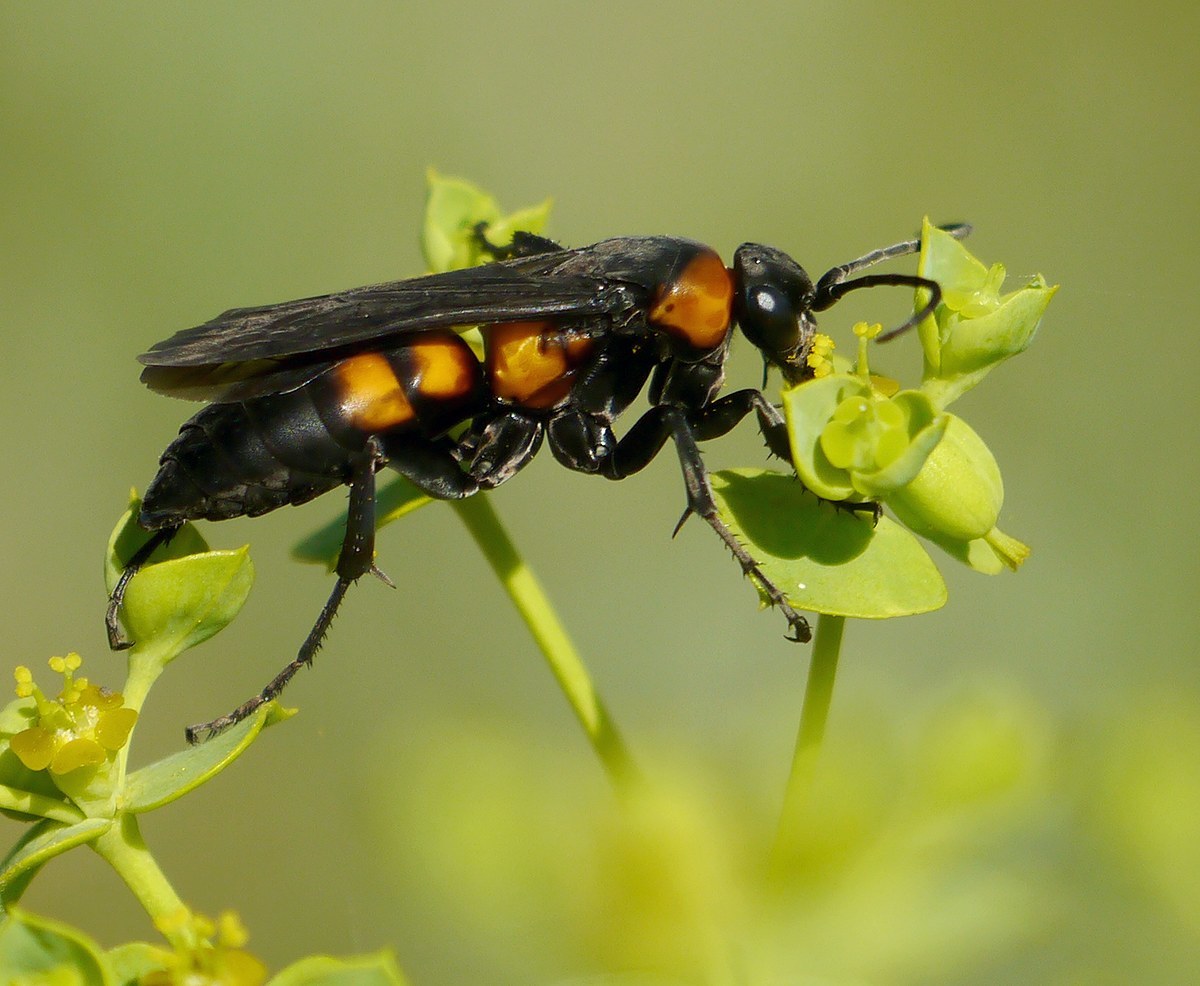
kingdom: Animalia
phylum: Arthropoda
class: Insecta
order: Hymenoptera
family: Pompilidae
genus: Eoferreola
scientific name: Eoferreola erythraea
